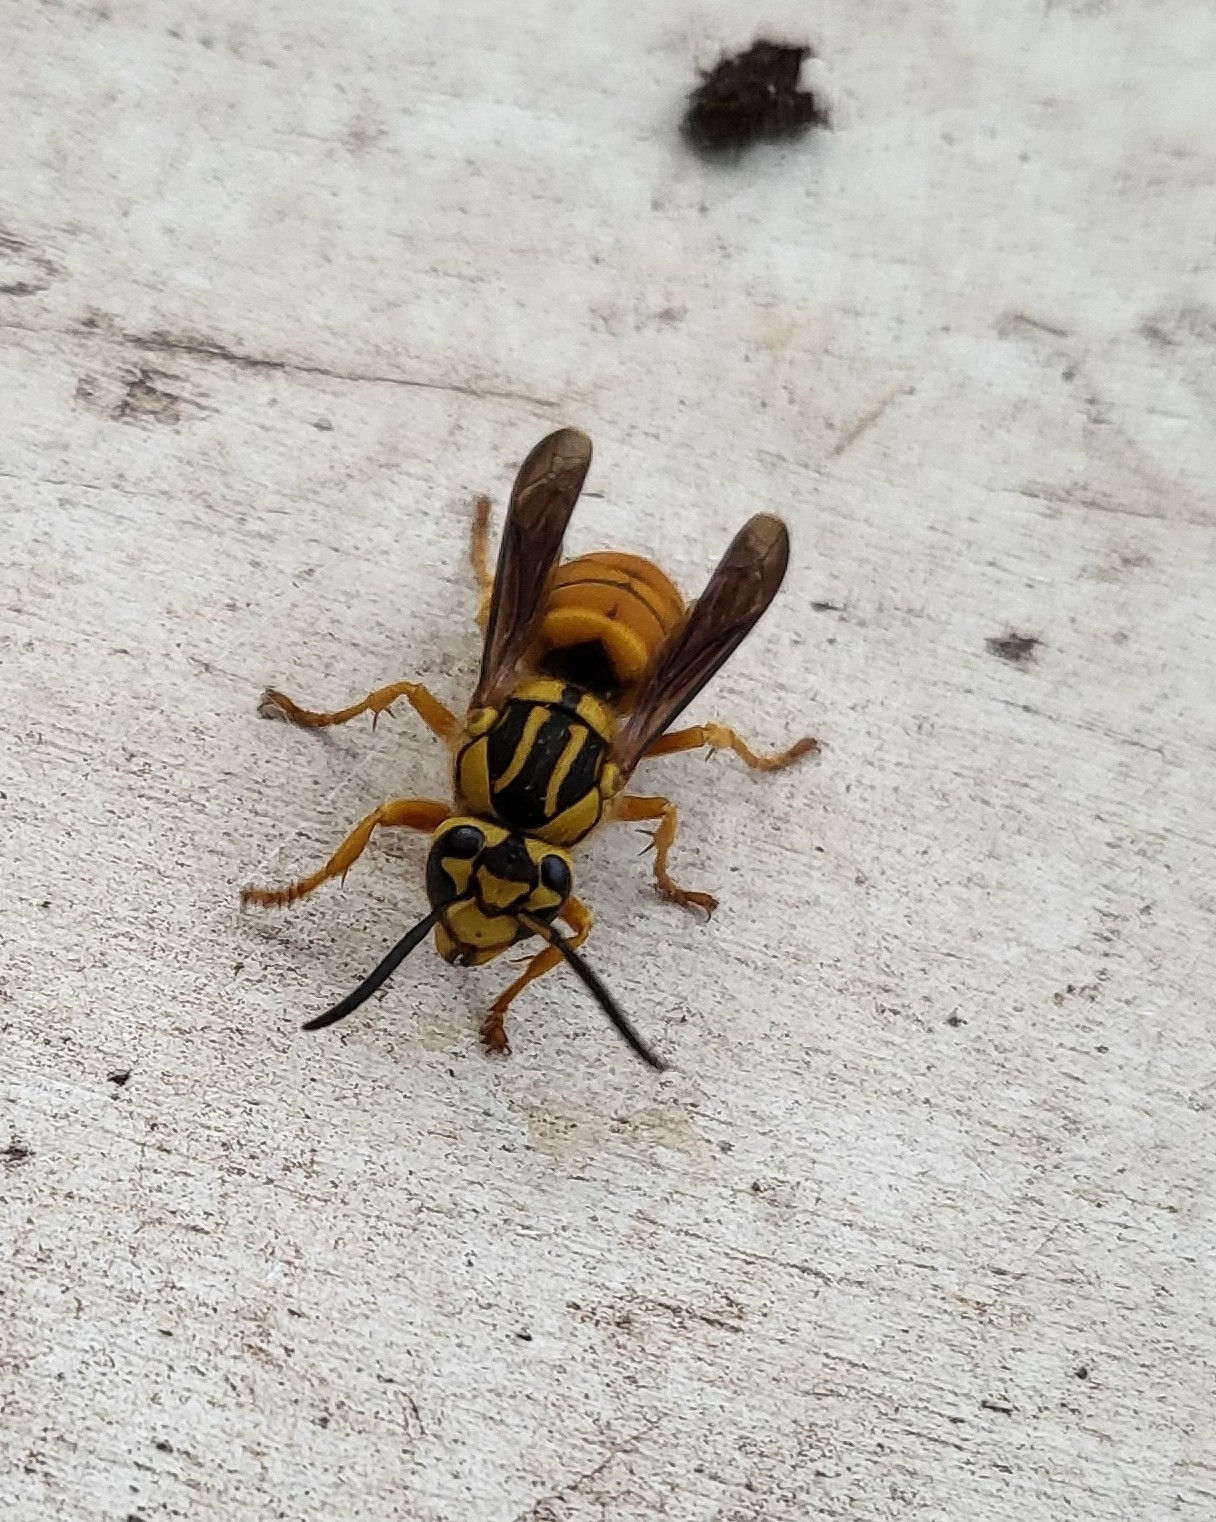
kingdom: Animalia
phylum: Arthropoda
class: Insecta
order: Hymenoptera
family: Vespidae
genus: Vespula
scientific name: Vespula squamosa
